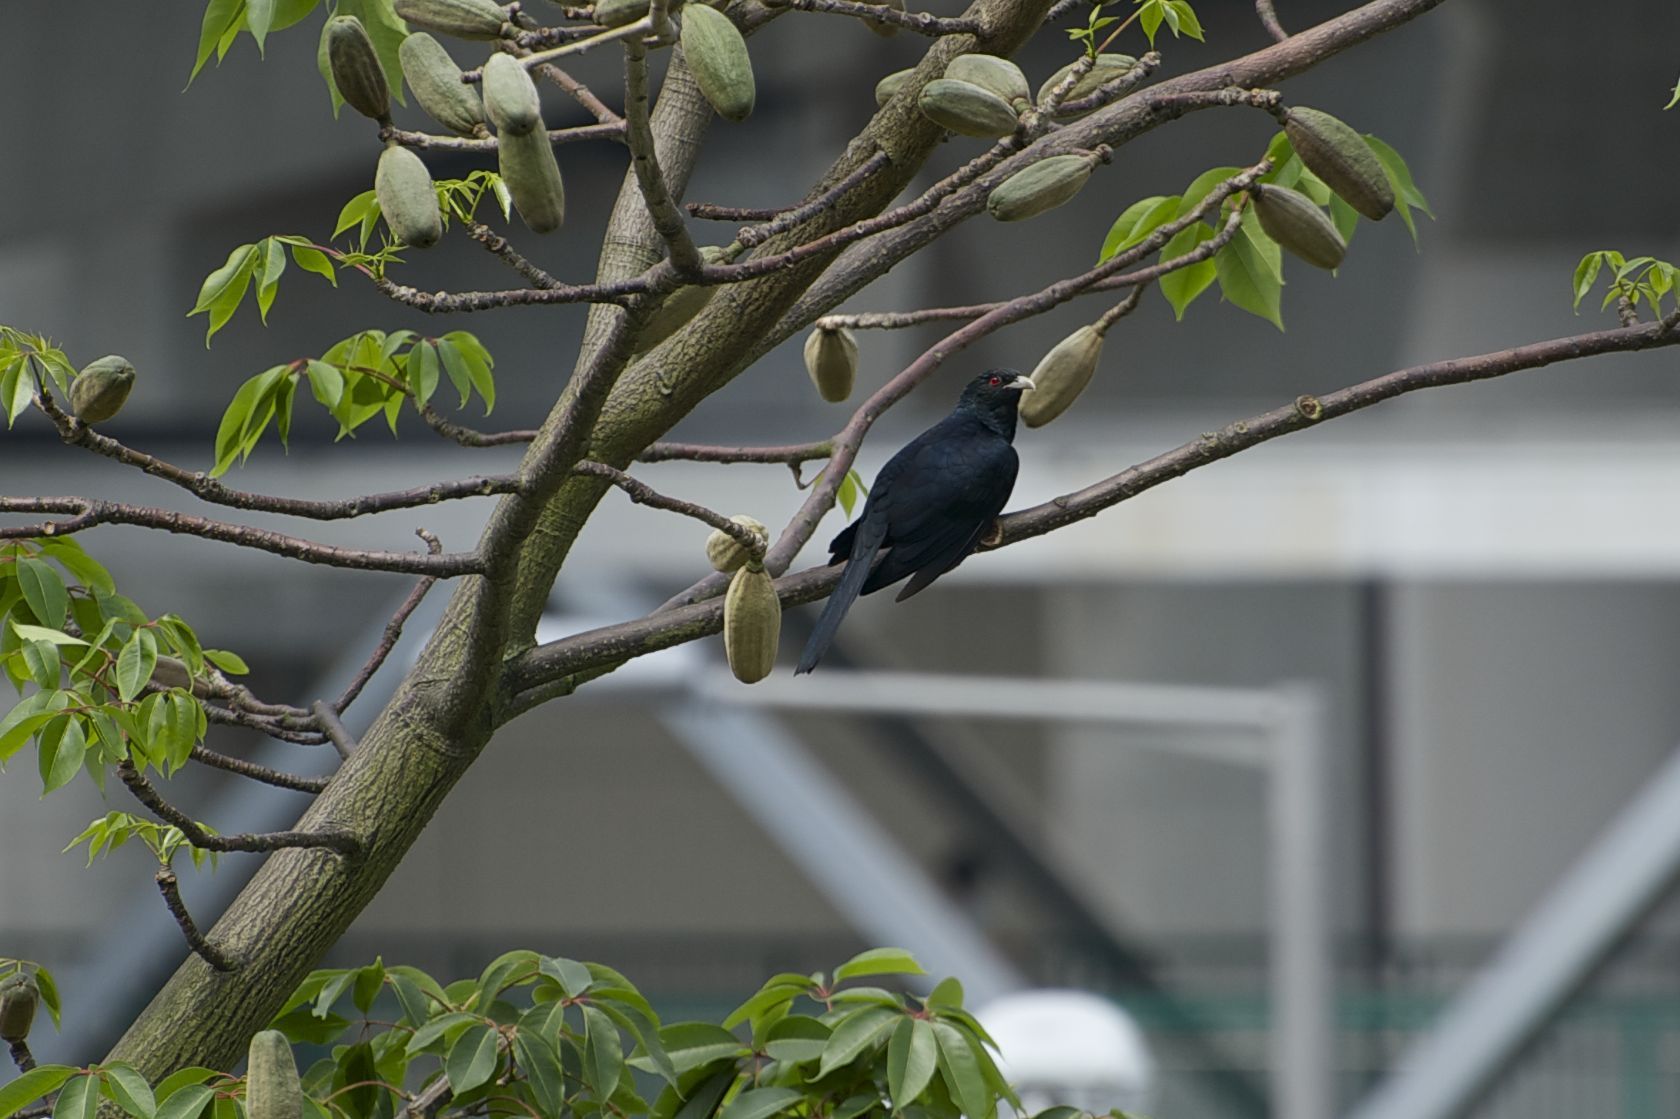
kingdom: Animalia
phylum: Chordata
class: Aves
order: Cuculiformes
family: Cuculidae
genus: Eudynamys
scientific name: Eudynamys scolopaceus
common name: Asian koel
